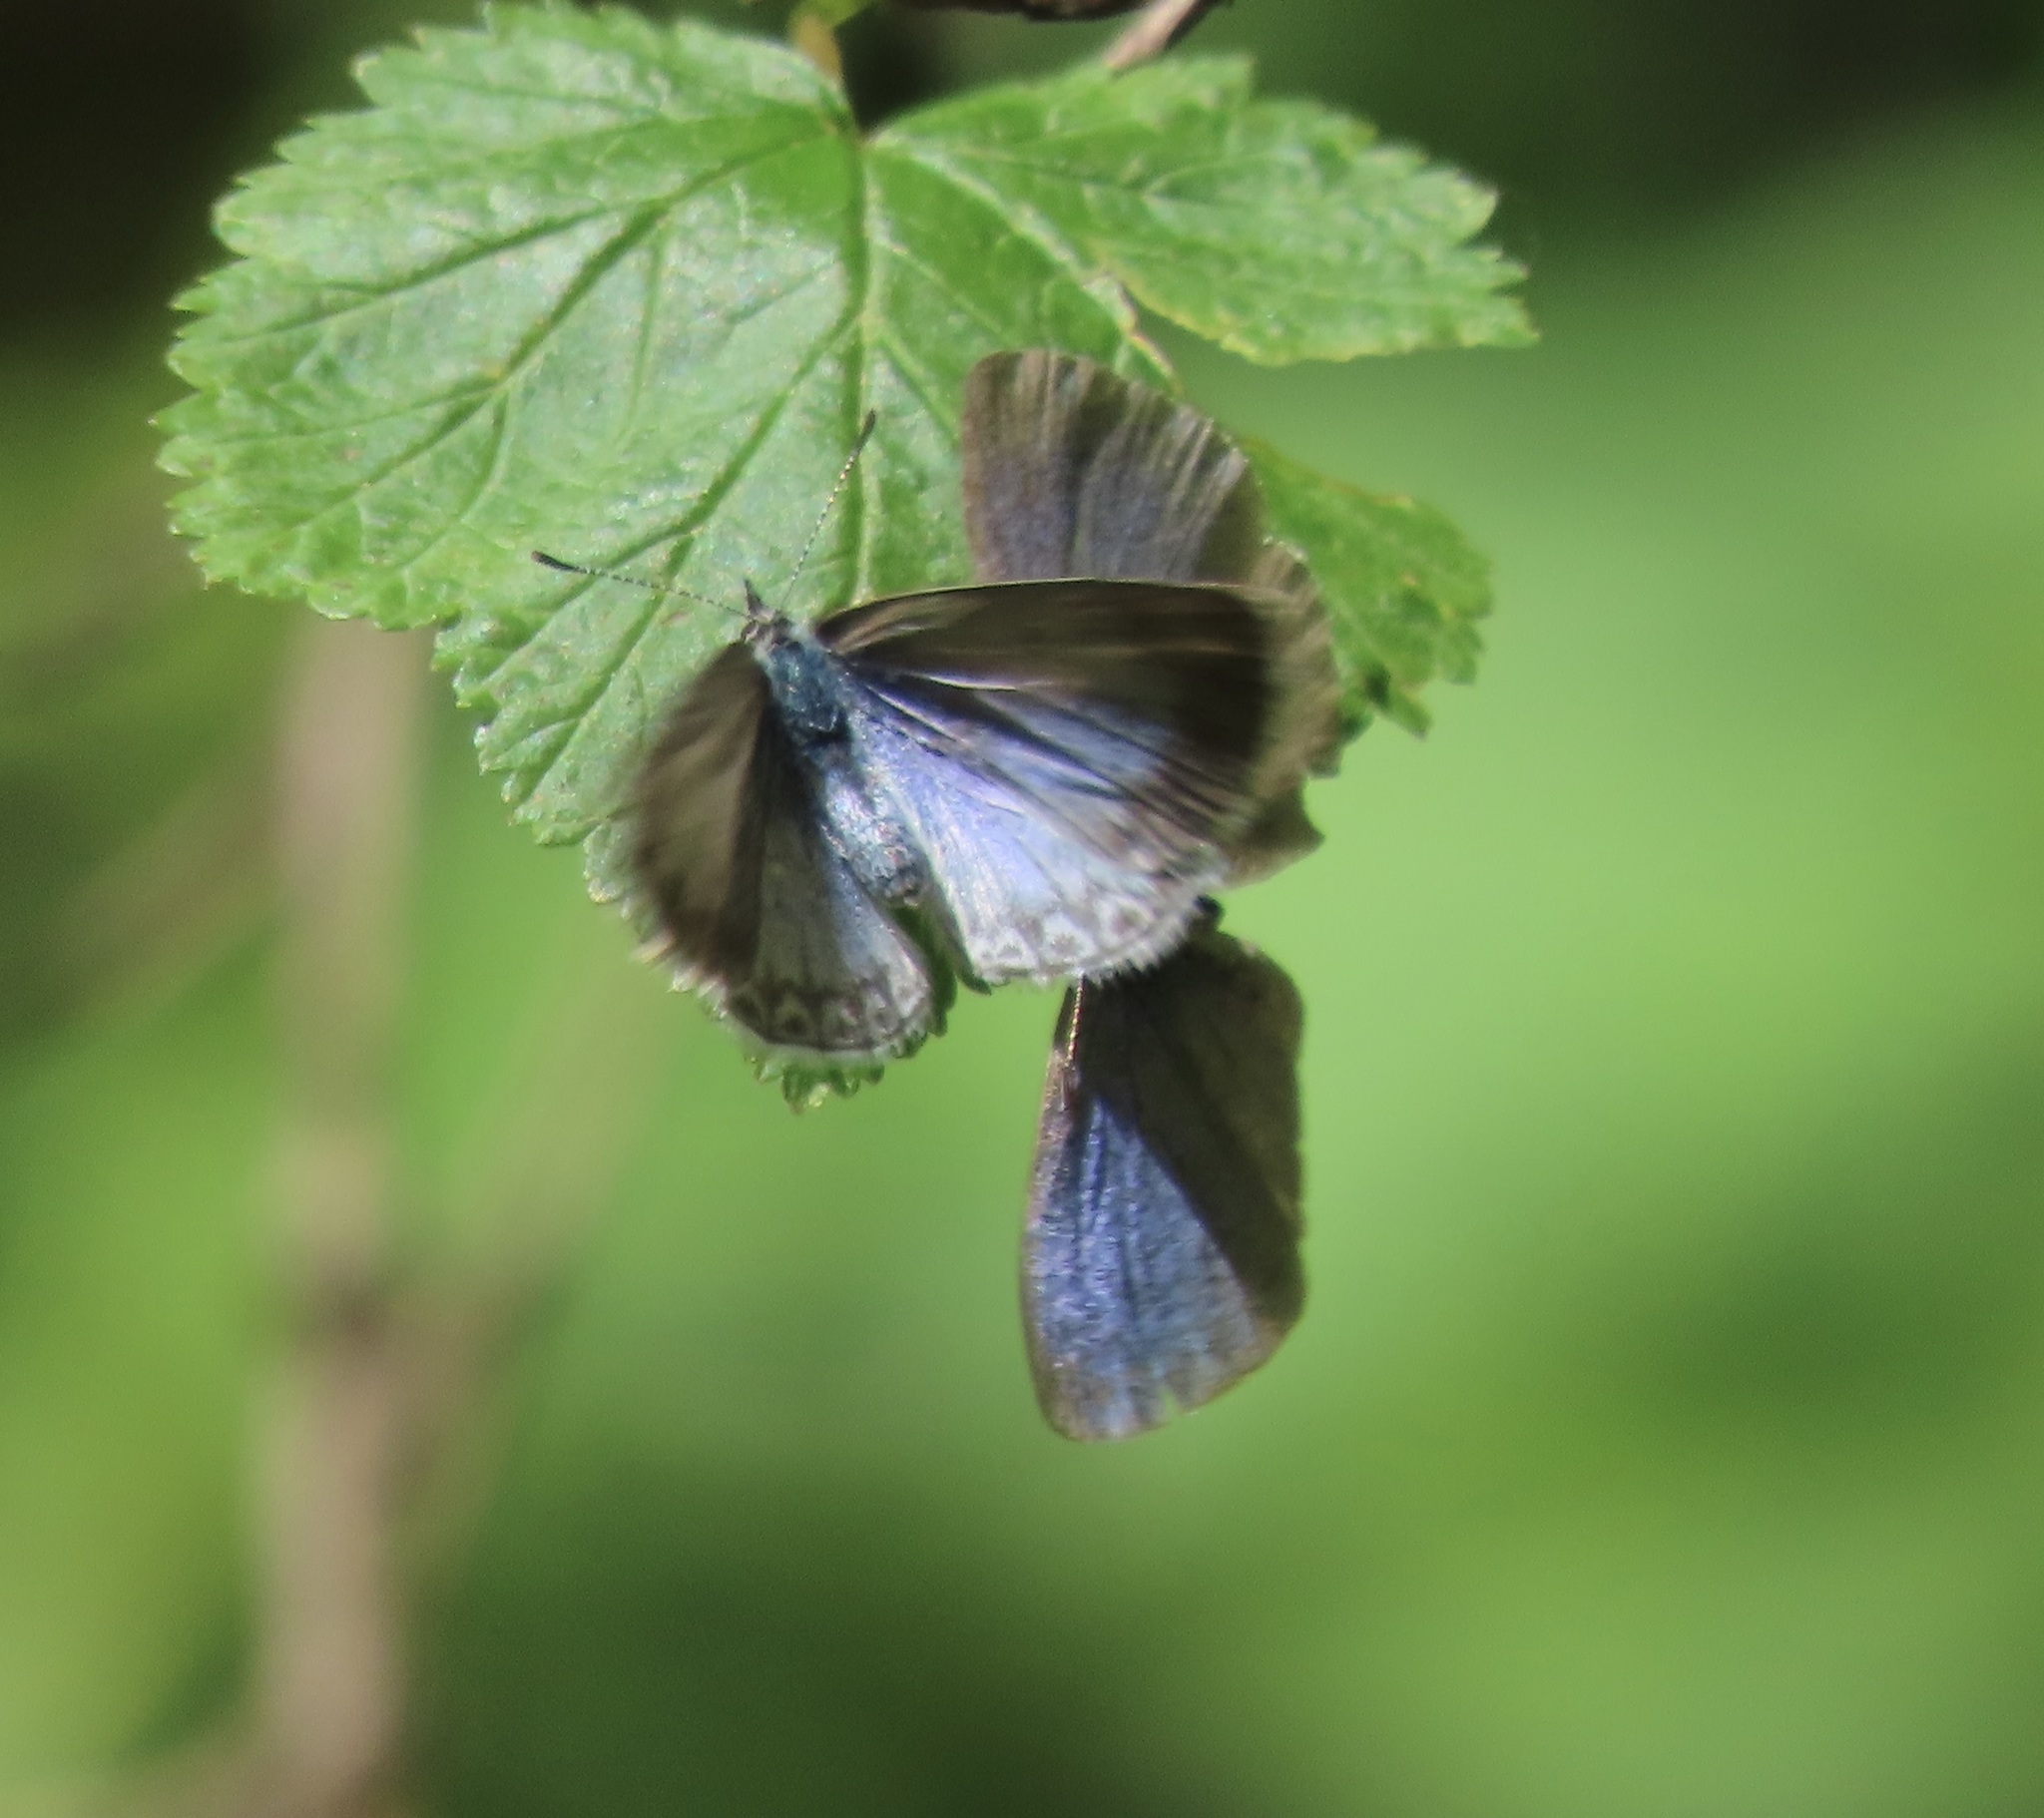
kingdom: Animalia
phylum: Arthropoda
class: Insecta
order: Lepidoptera
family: Lycaenidae
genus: Celastrina
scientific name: Celastrina ladon
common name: Spring azure
